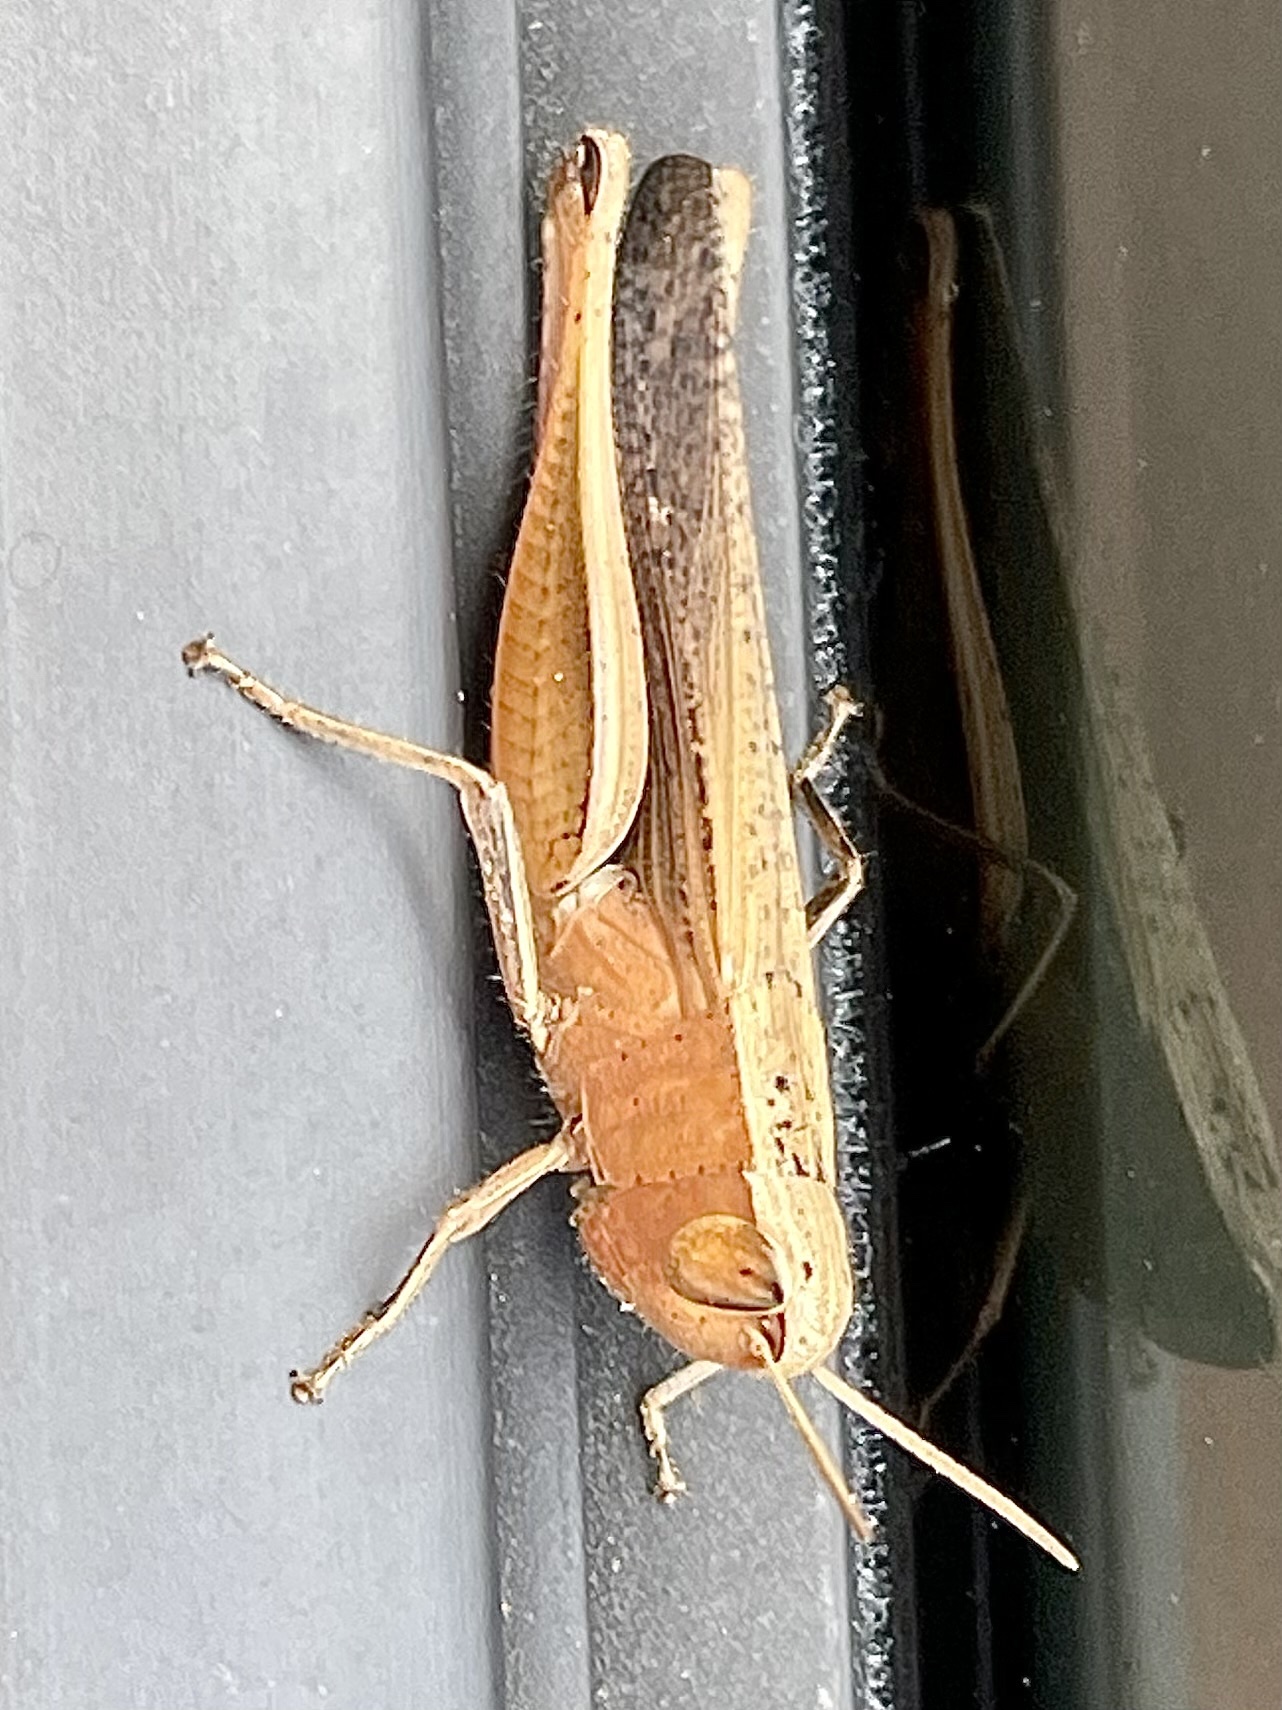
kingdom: Animalia
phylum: Arthropoda
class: Insecta
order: Orthoptera
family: Acrididae
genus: Amblytropidia
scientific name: Amblytropidia mysteca
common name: Brown winter grasshopper
